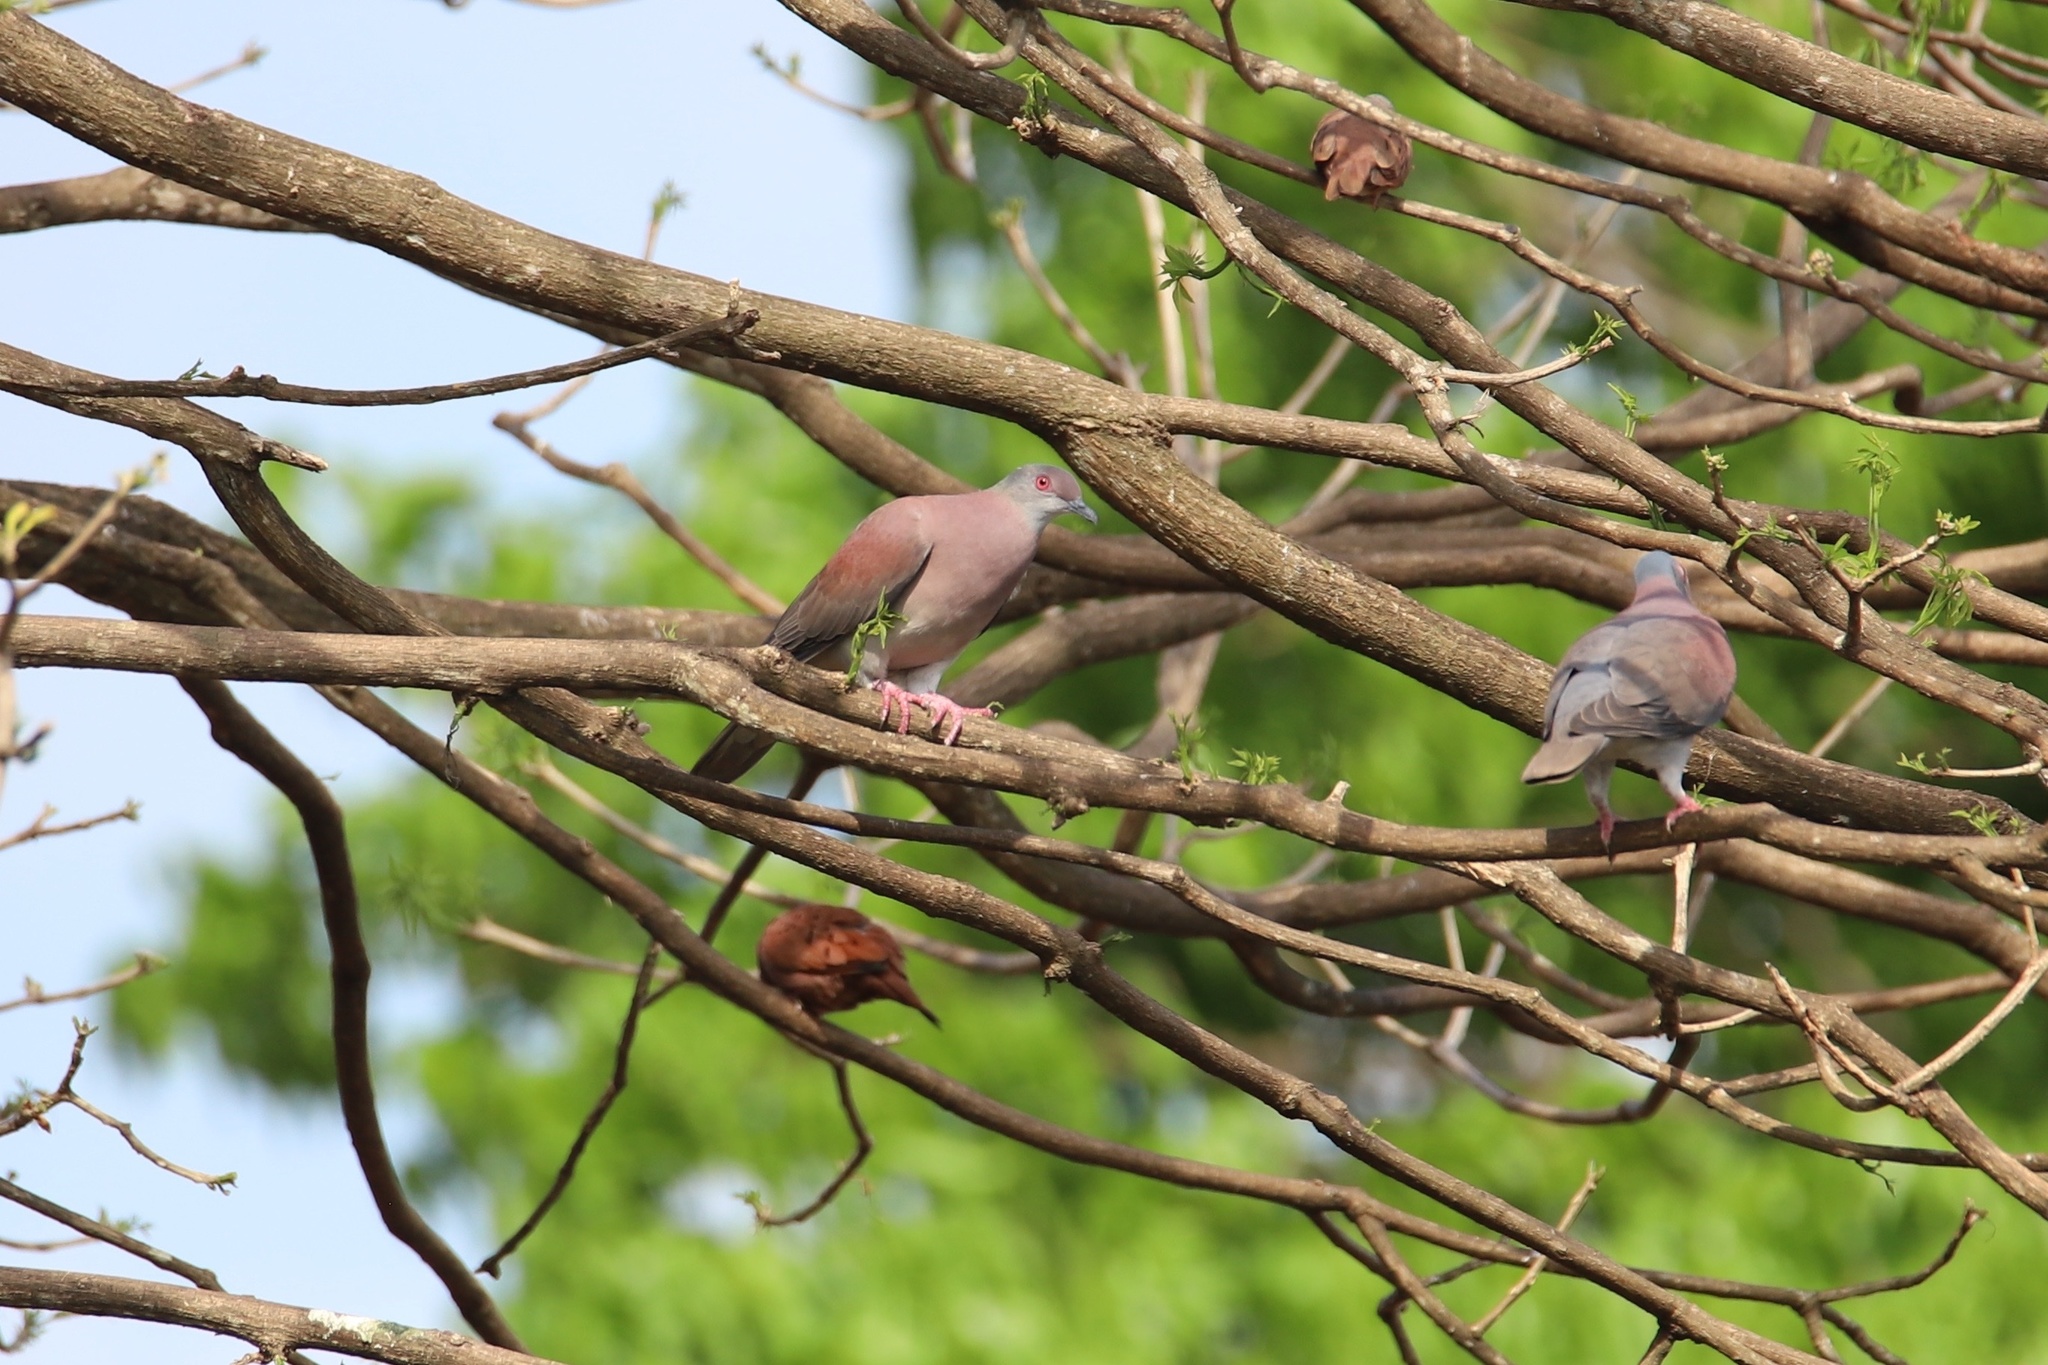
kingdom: Animalia
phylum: Chordata
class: Aves
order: Columbiformes
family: Columbidae
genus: Patagioenas
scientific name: Patagioenas cayennensis
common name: Pale-vented pigeon
